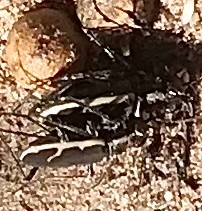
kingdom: Animalia
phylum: Arthropoda
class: Insecta
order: Coleoptera
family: Carabidae
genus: Cicindela
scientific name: Cicindela marginella
